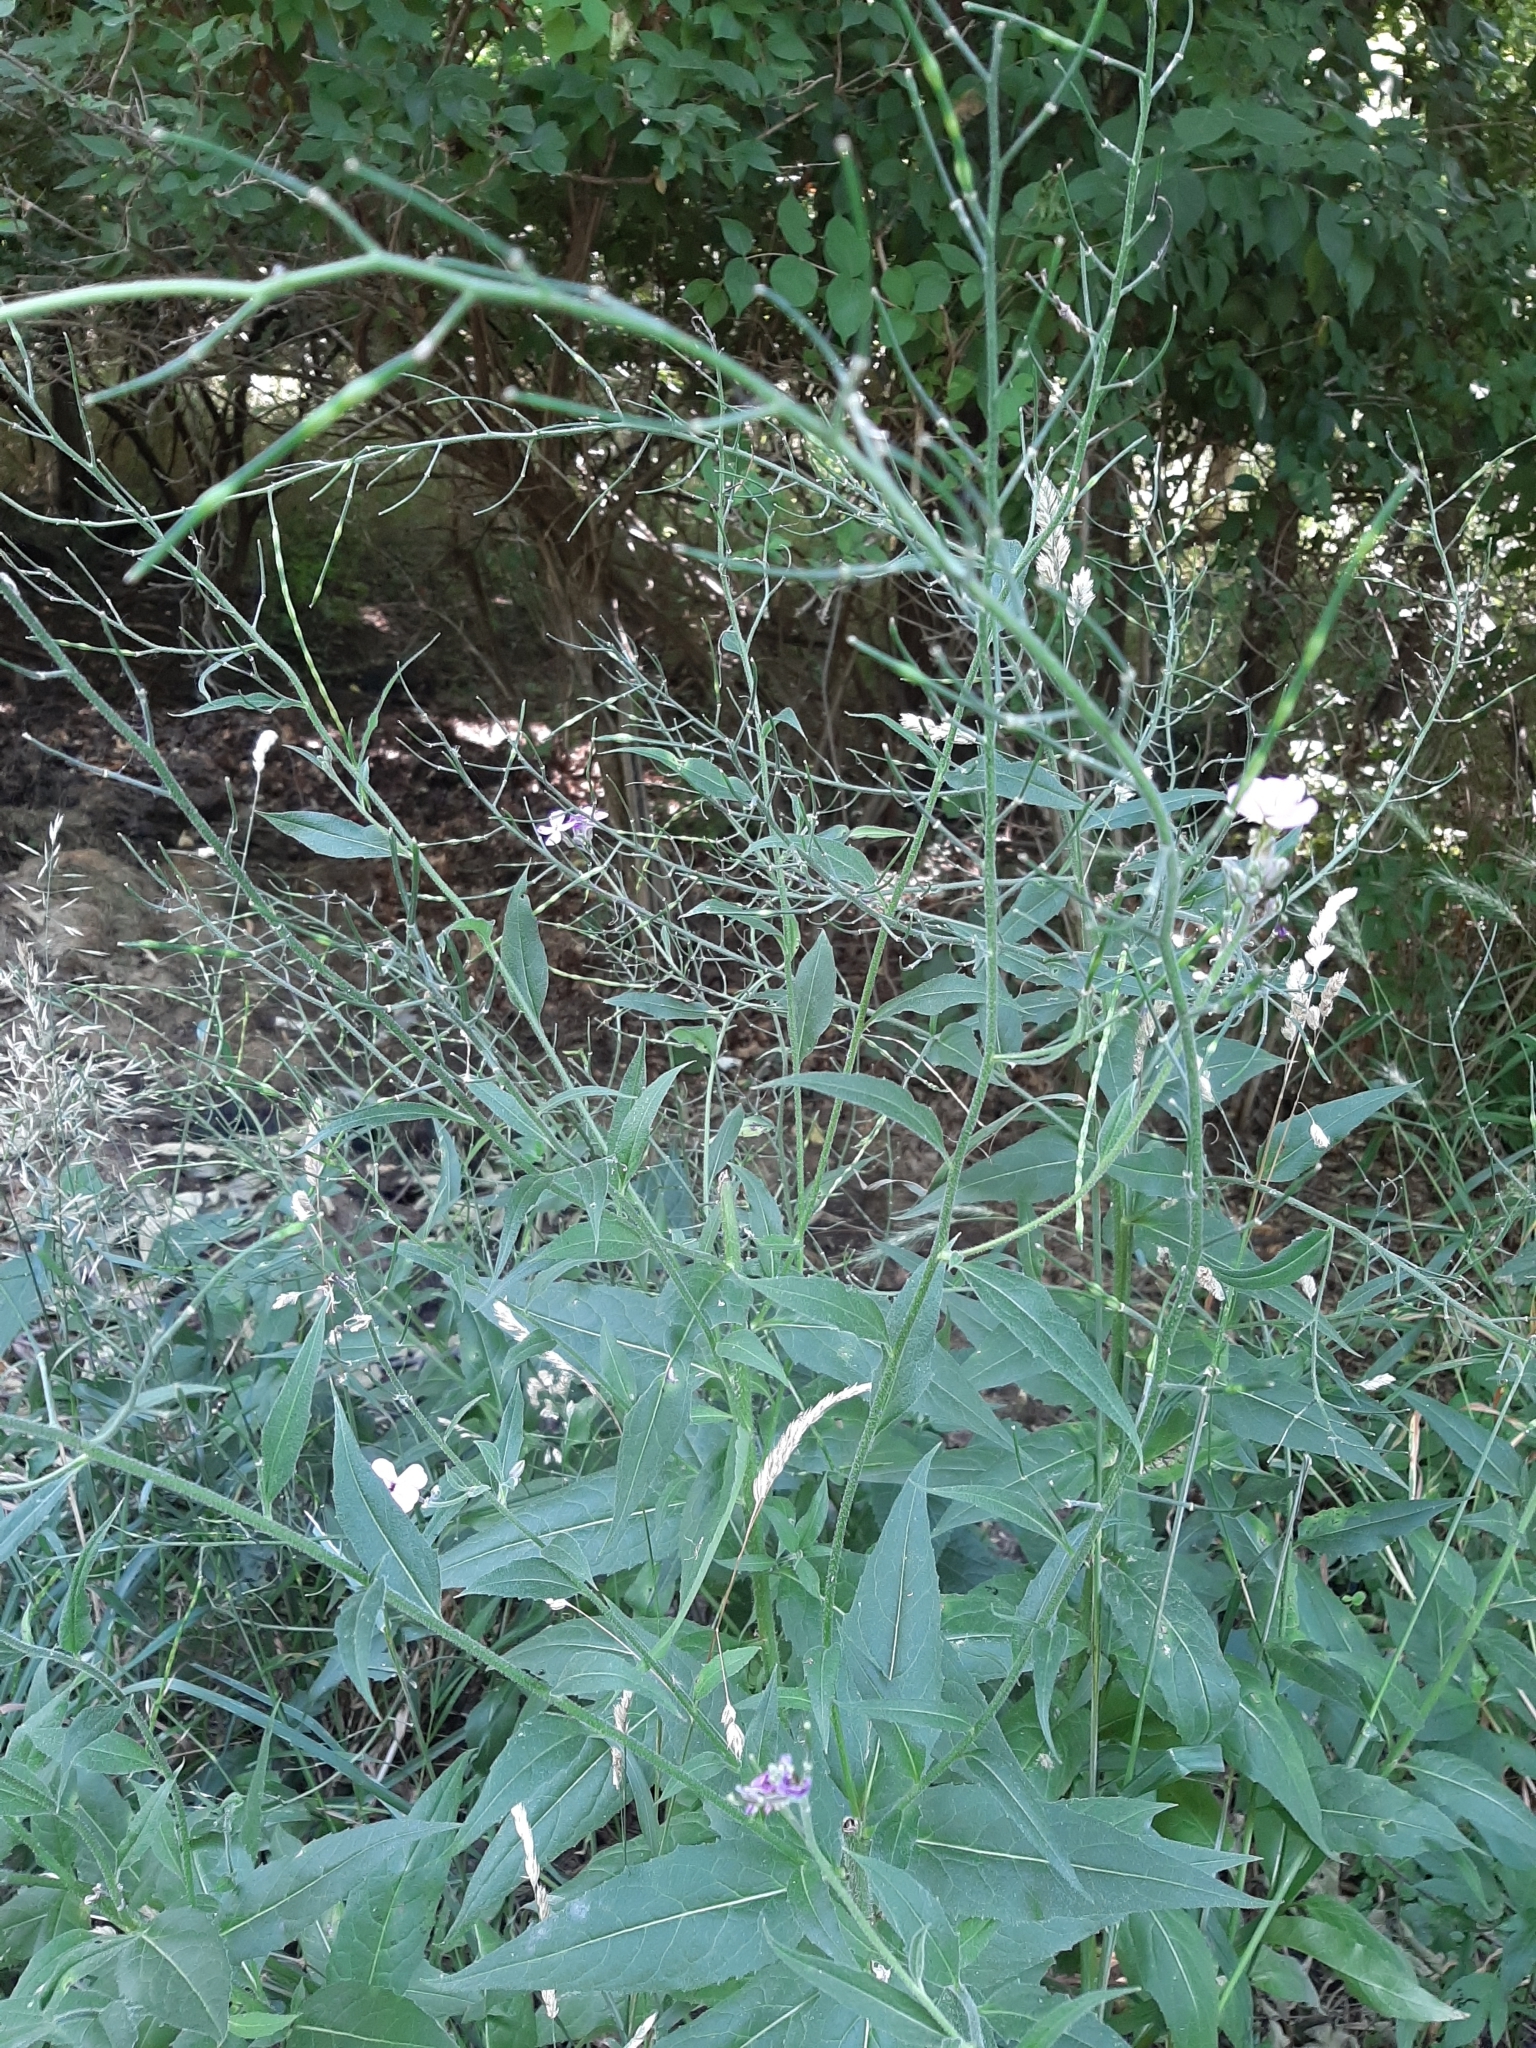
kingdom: Plantae
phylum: Tracheophyta
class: Magnoliopsida
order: Brassicales
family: Brassicaceae
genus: Hesperis
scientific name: Hesperis matronalis
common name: Dame's-violet
